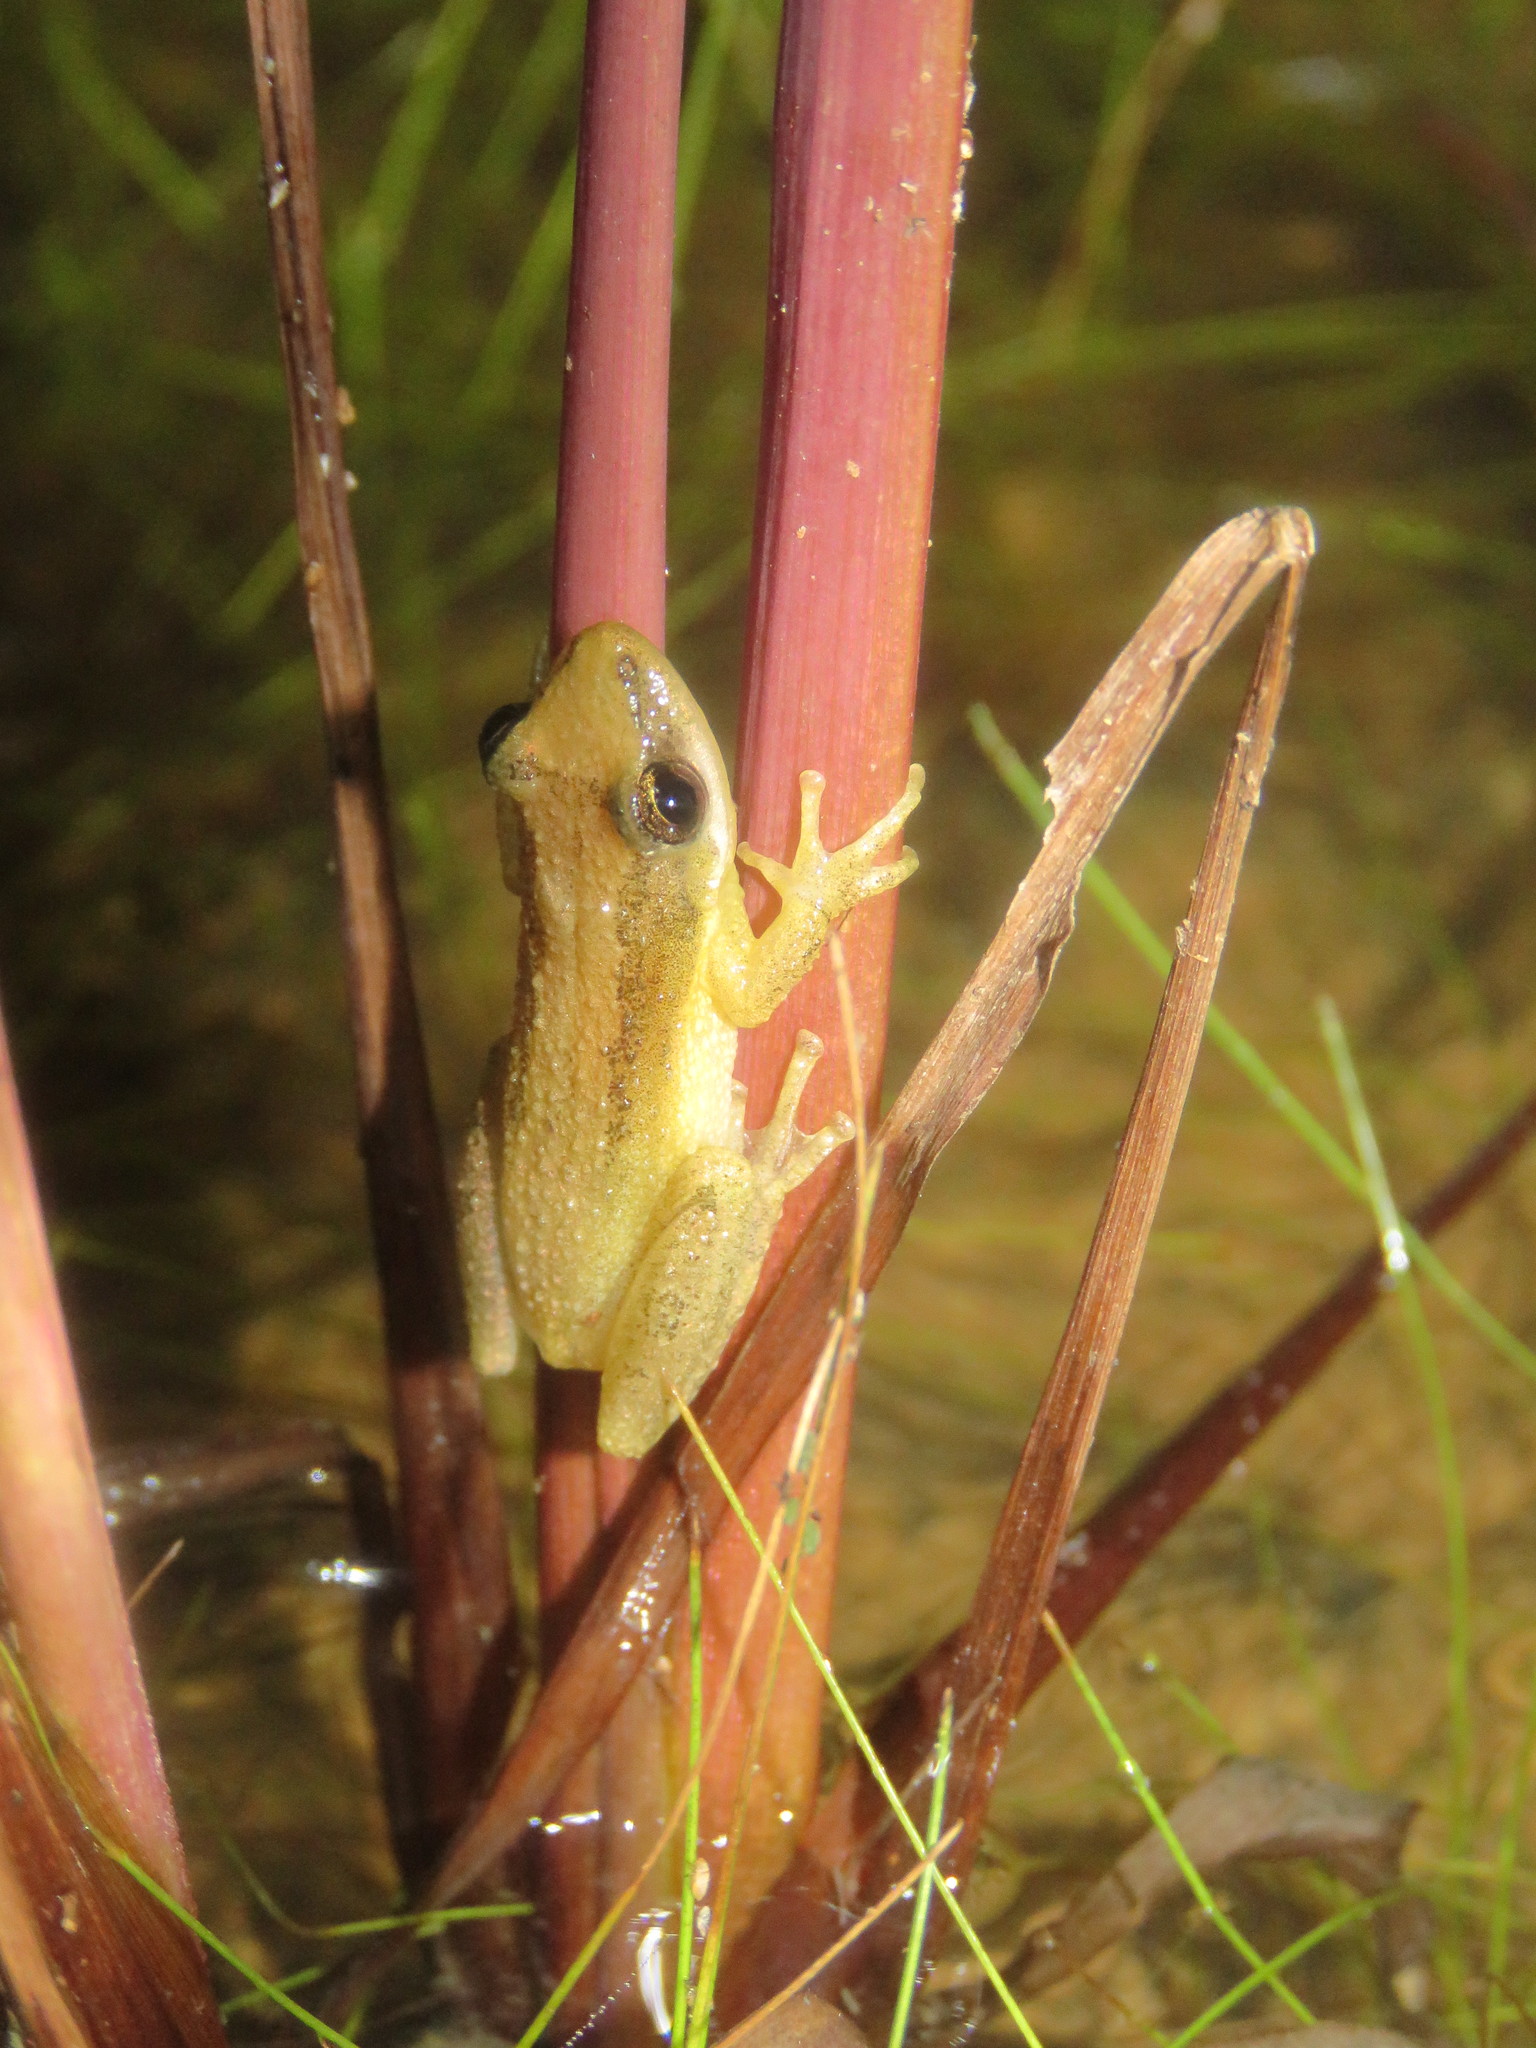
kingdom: Animalia
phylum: Chordata
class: Amphibia
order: Anura
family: Hylidae
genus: Scinax
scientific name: Scinax fuscomarginatus
